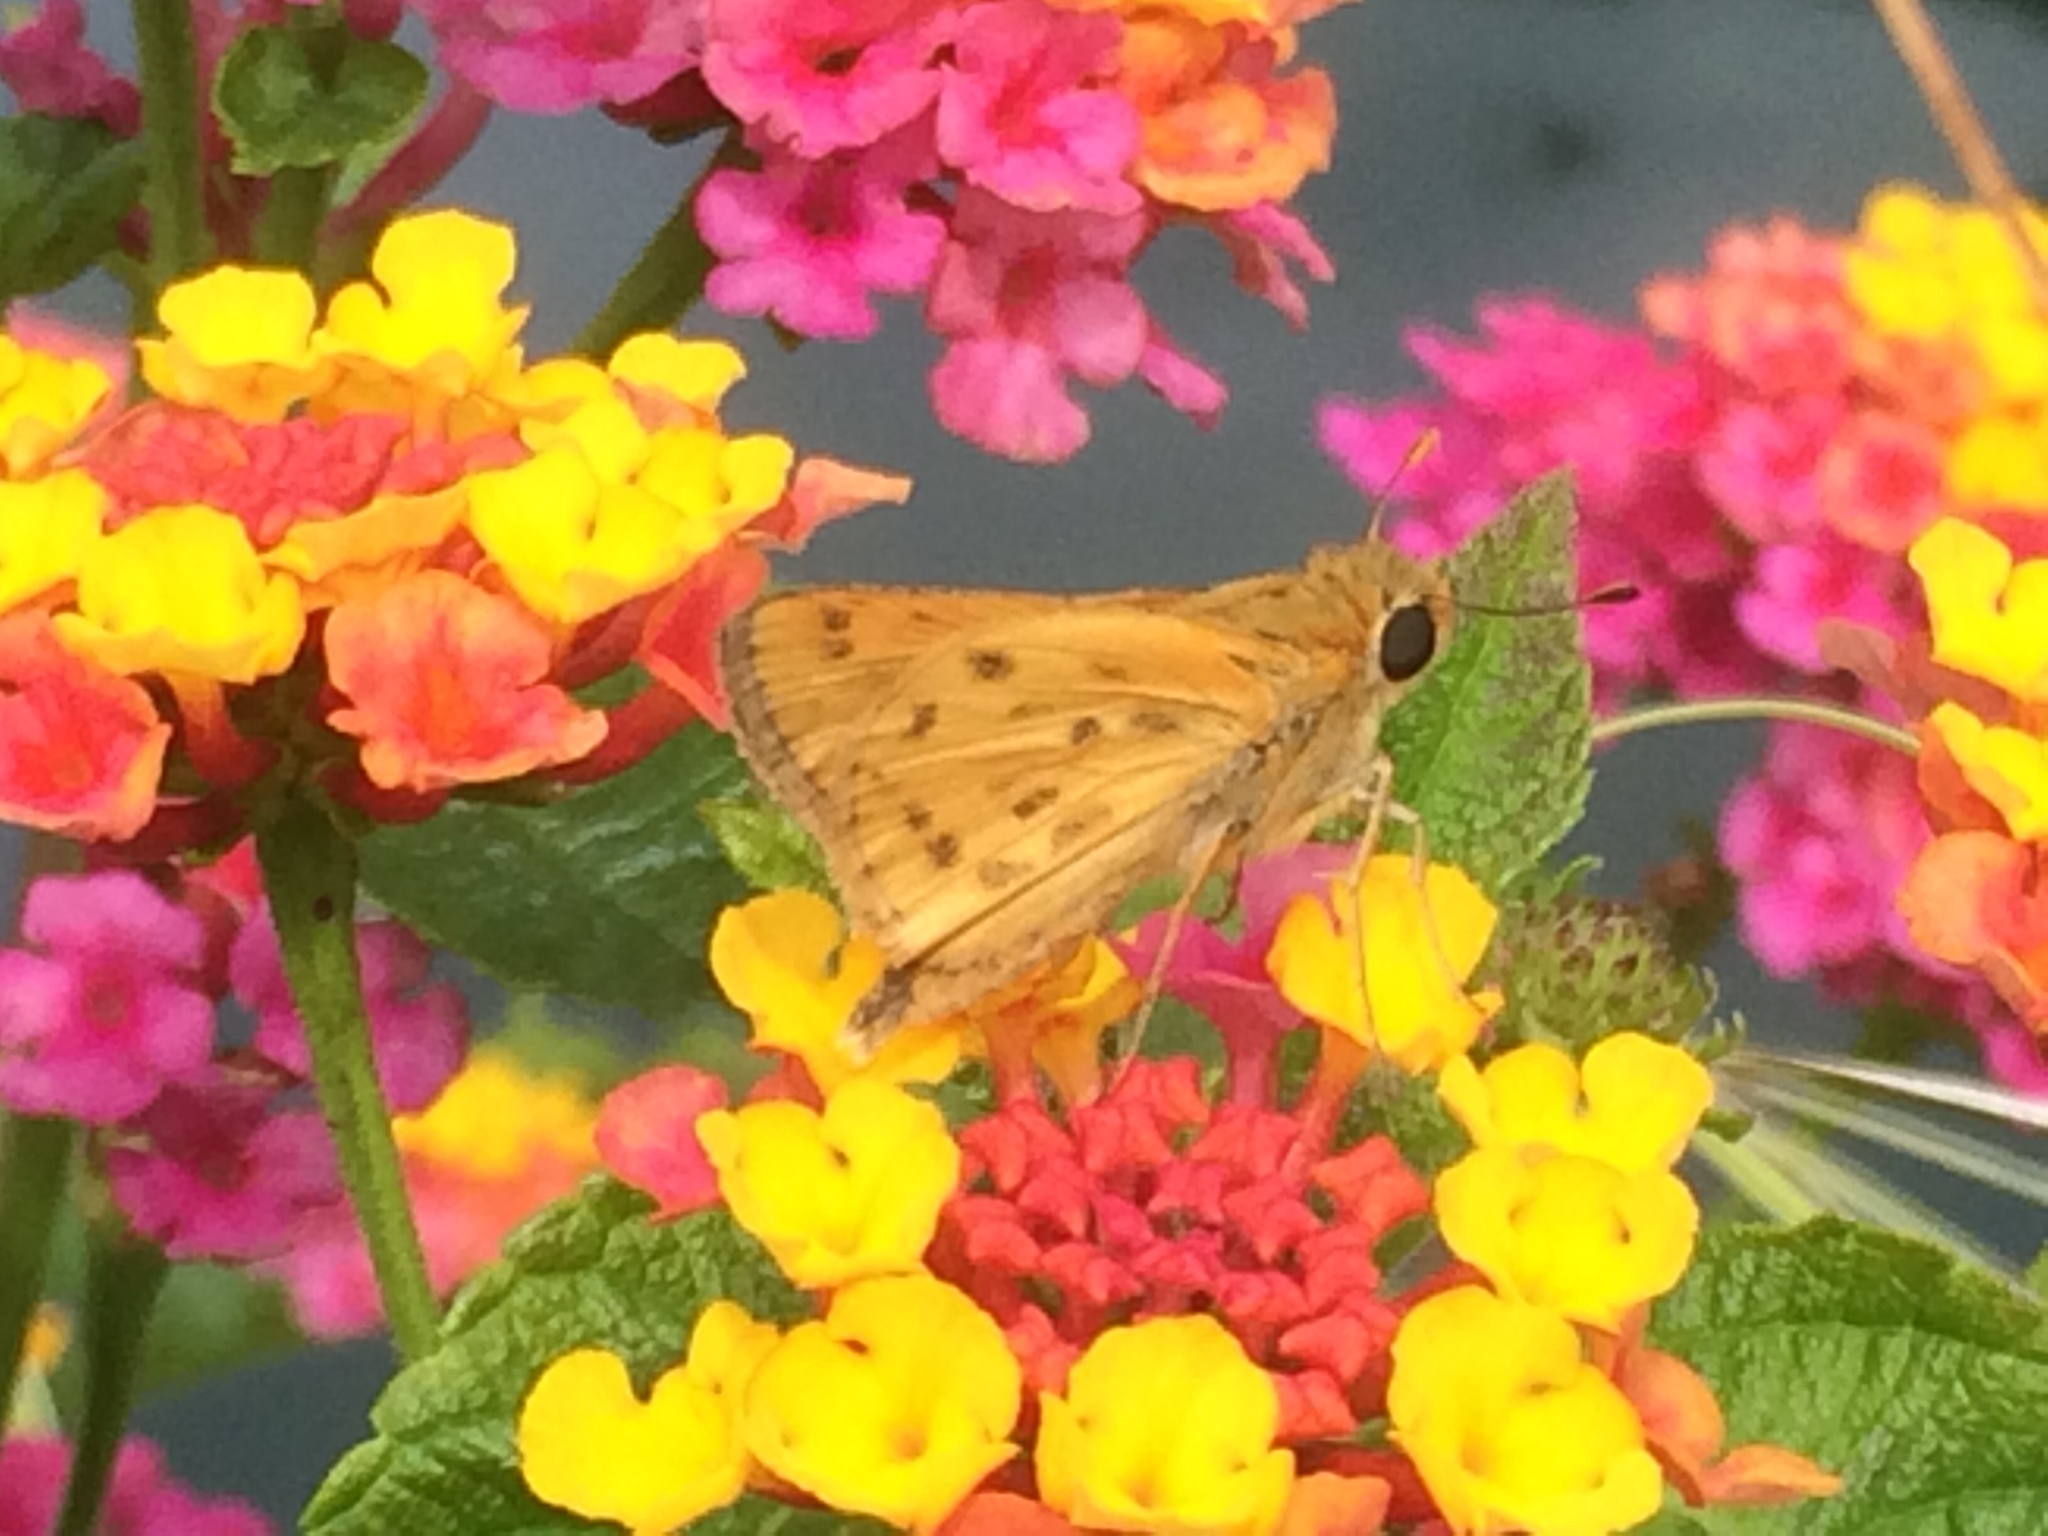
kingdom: Animalia
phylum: Arthropoda
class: Insecta
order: Lepidoptera
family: Hesperiidae
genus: Hylephila
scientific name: Hylephila phyleus
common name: Fiery skipper
